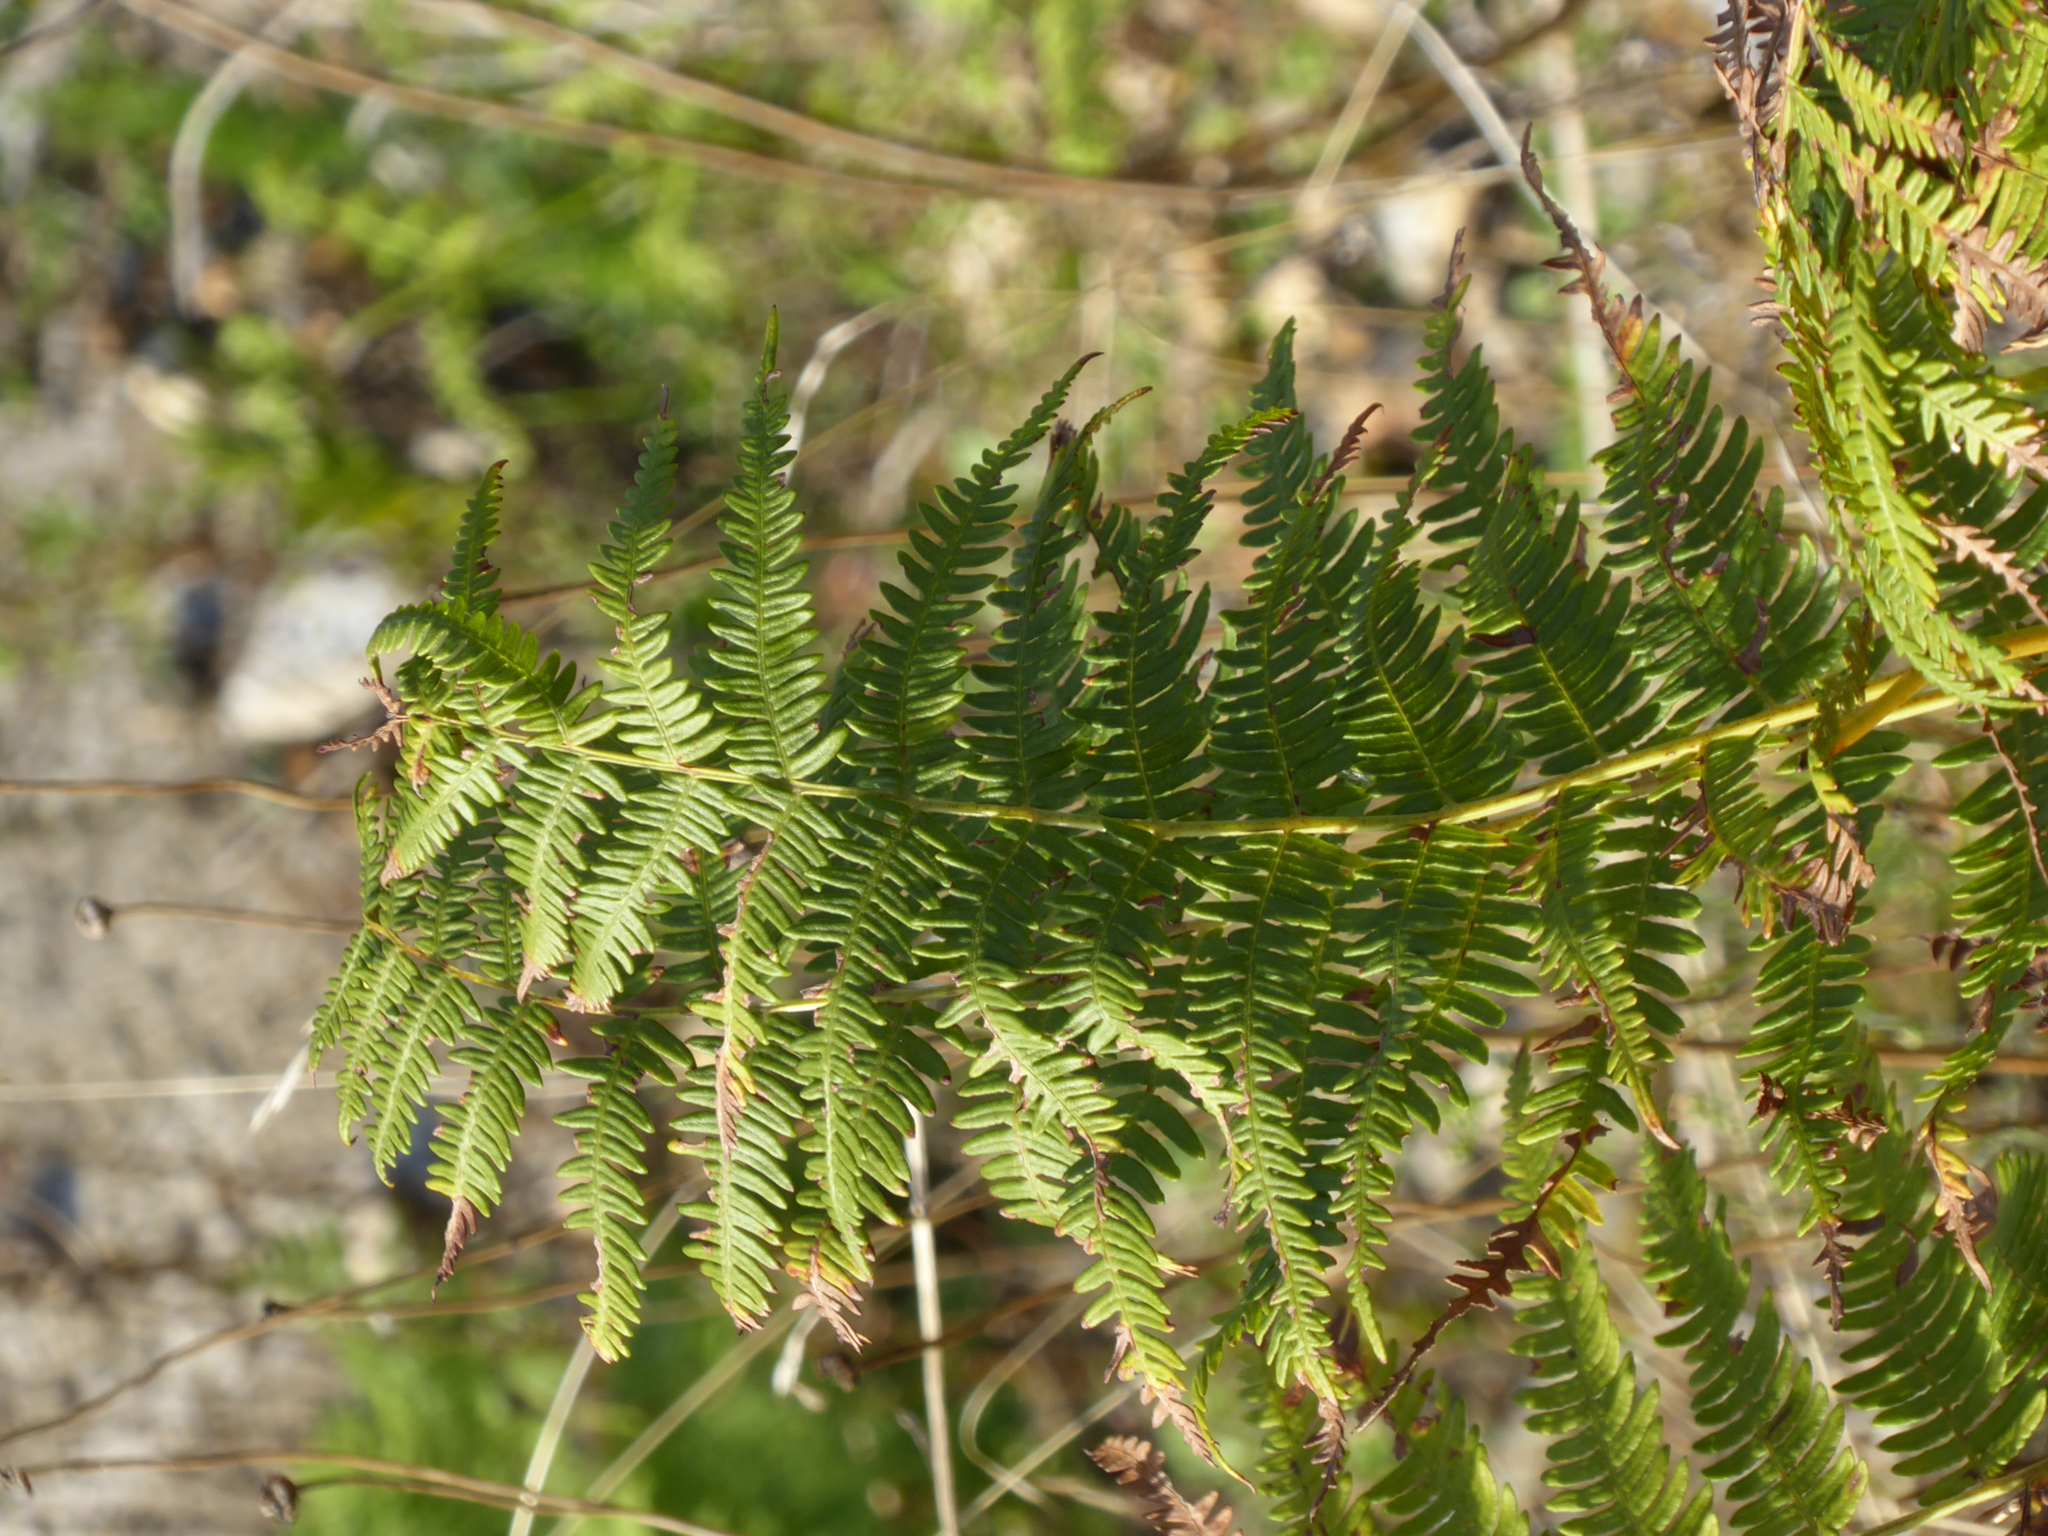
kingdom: Plantae
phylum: Tracheophyta
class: Polypodiopsida
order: Polypodiales
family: Dennstaedtiaceae
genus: Pteridium
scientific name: Pteridium aquilinum
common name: Bracken
